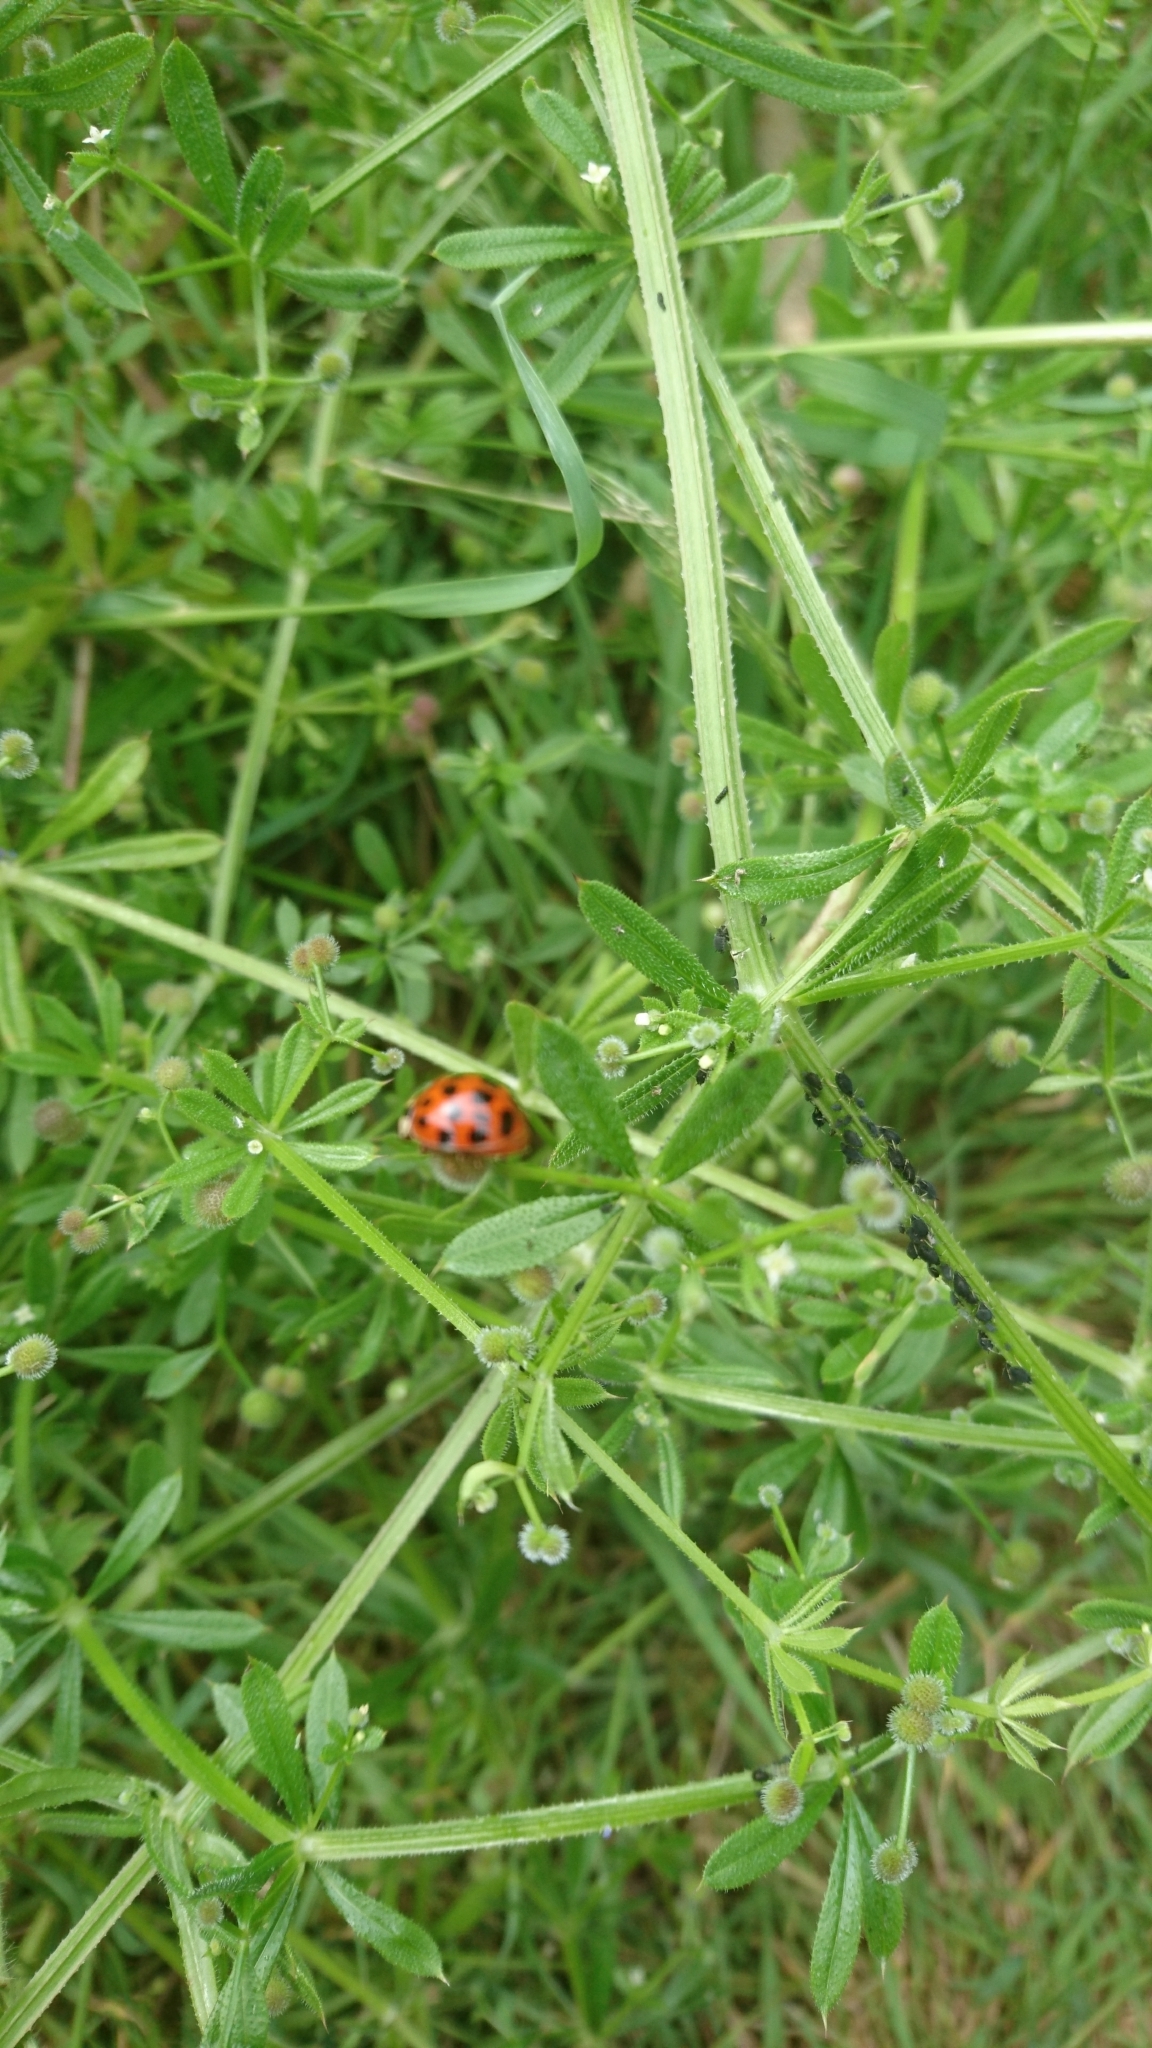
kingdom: Animalia
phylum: Arthropoda
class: Insecta
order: Coleoptera
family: Coccinellidae
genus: Harmonia
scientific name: Harmonia axyridis
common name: Harlequin ladybird
